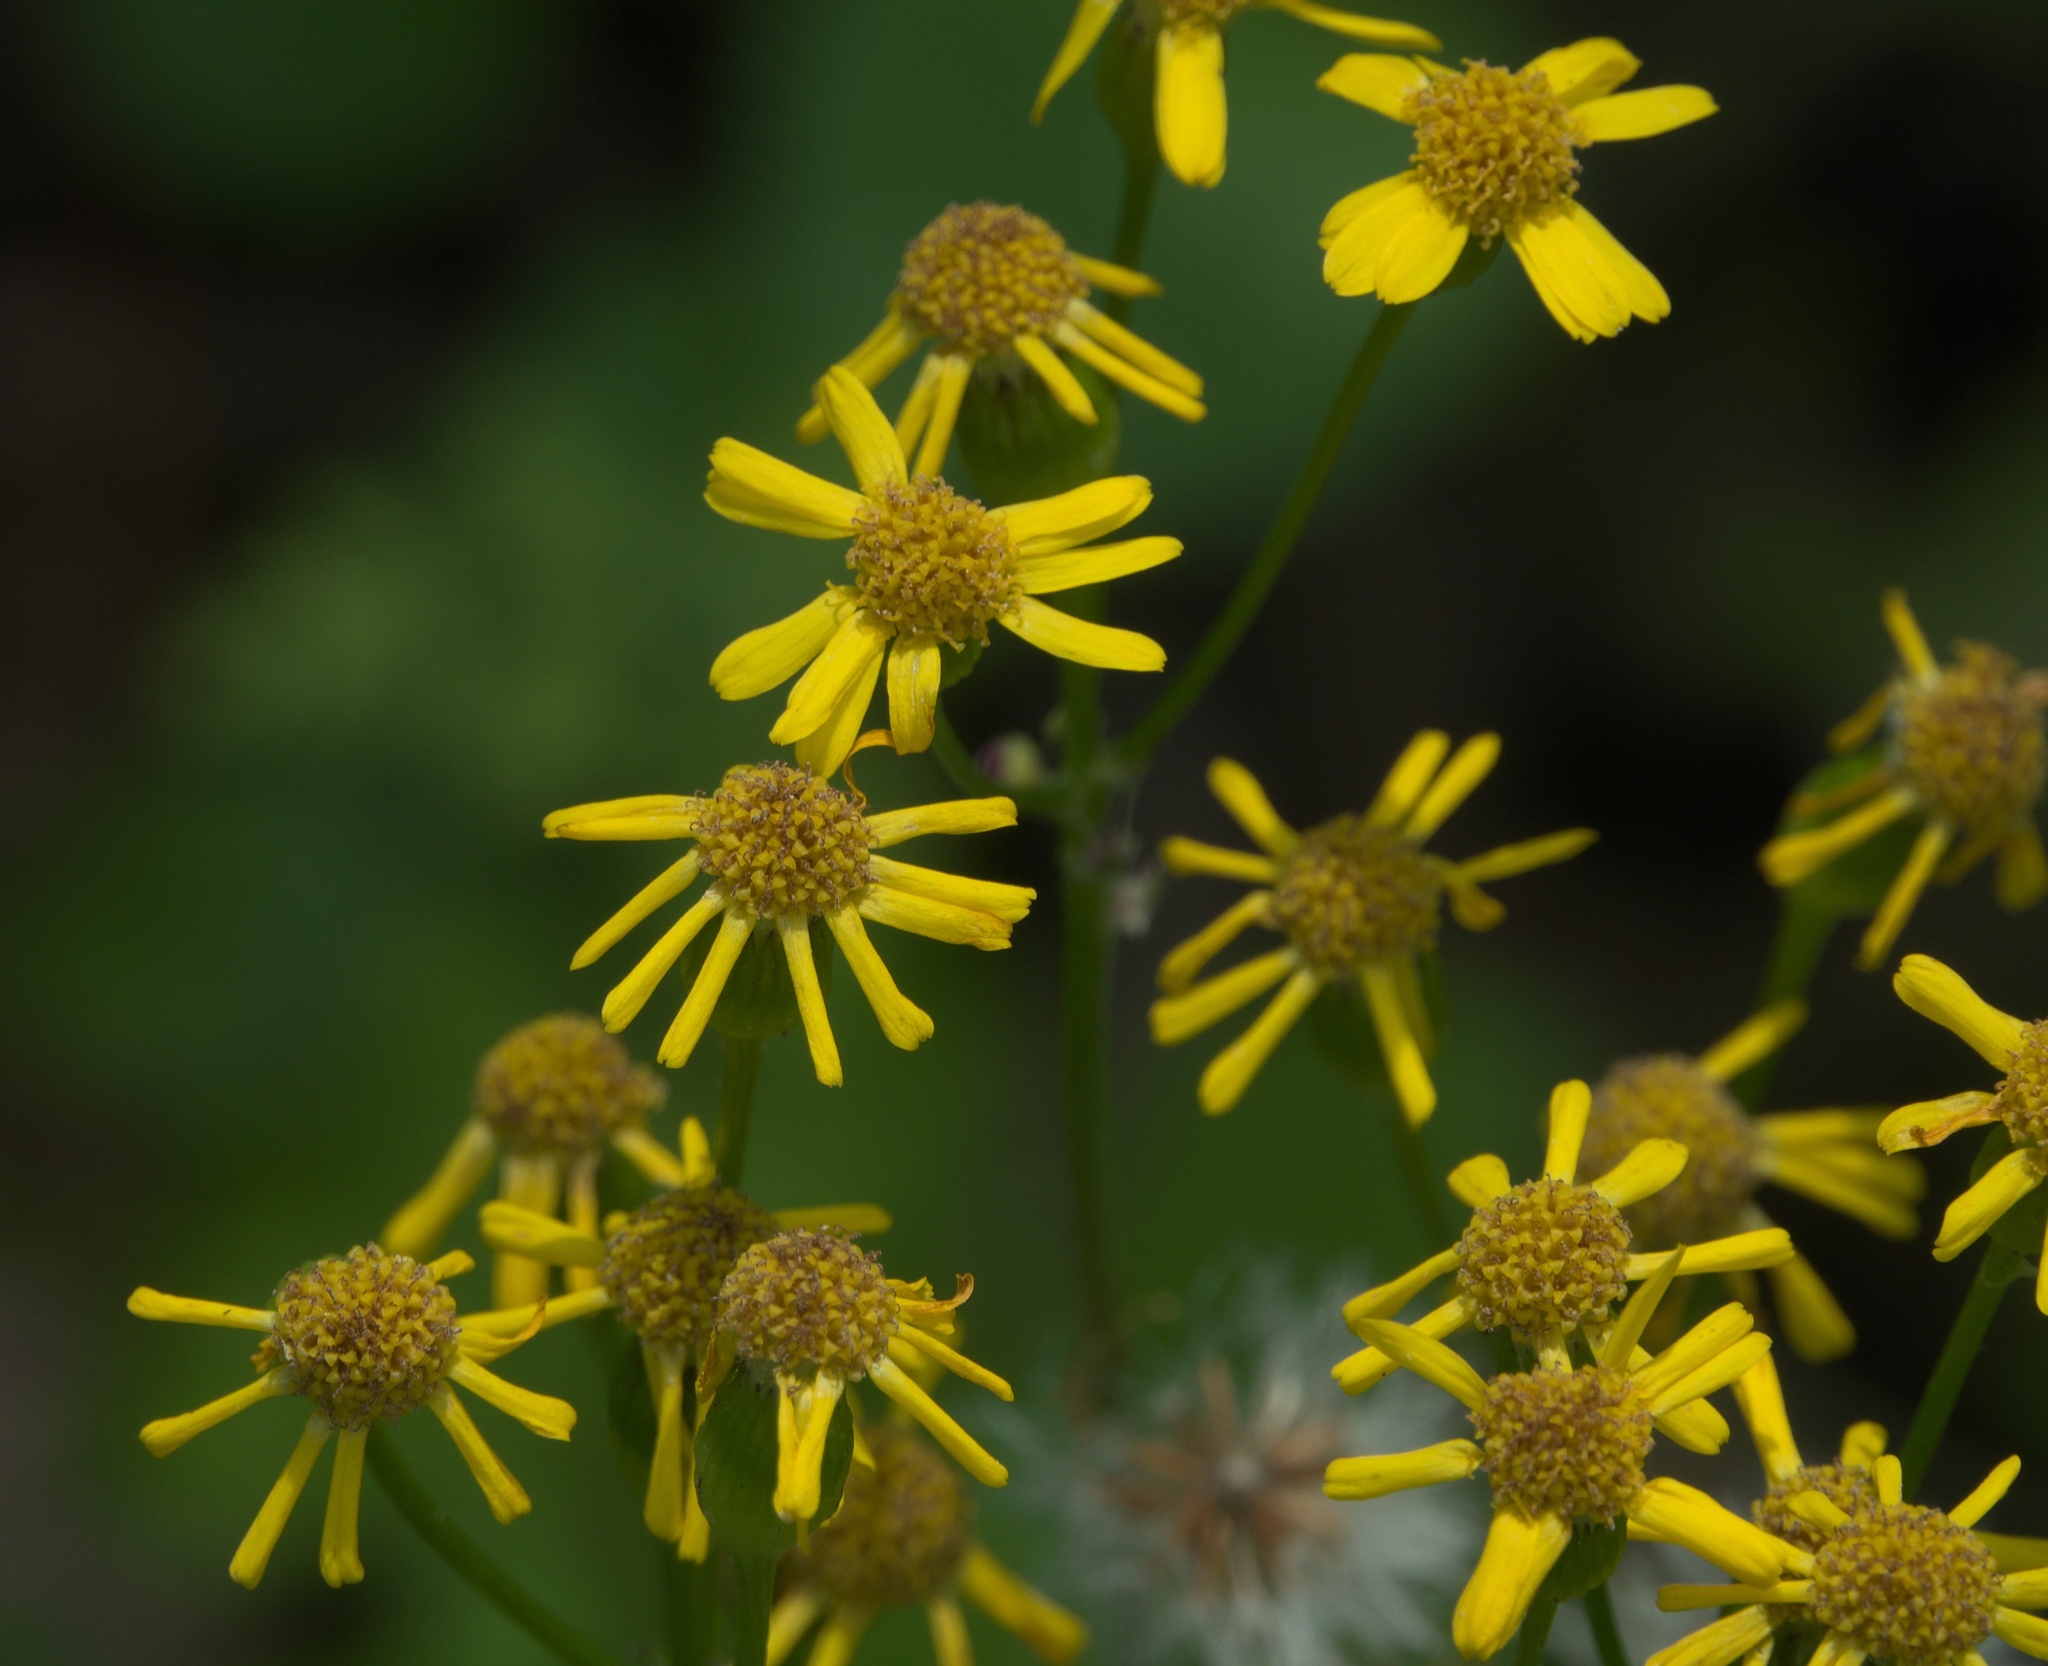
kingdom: Plantae
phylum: Tracheophyta
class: Magnoliopsida
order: Asterales
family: Asteraceae
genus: Packera
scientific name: Packera obovata
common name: Round-leaf ragwort
